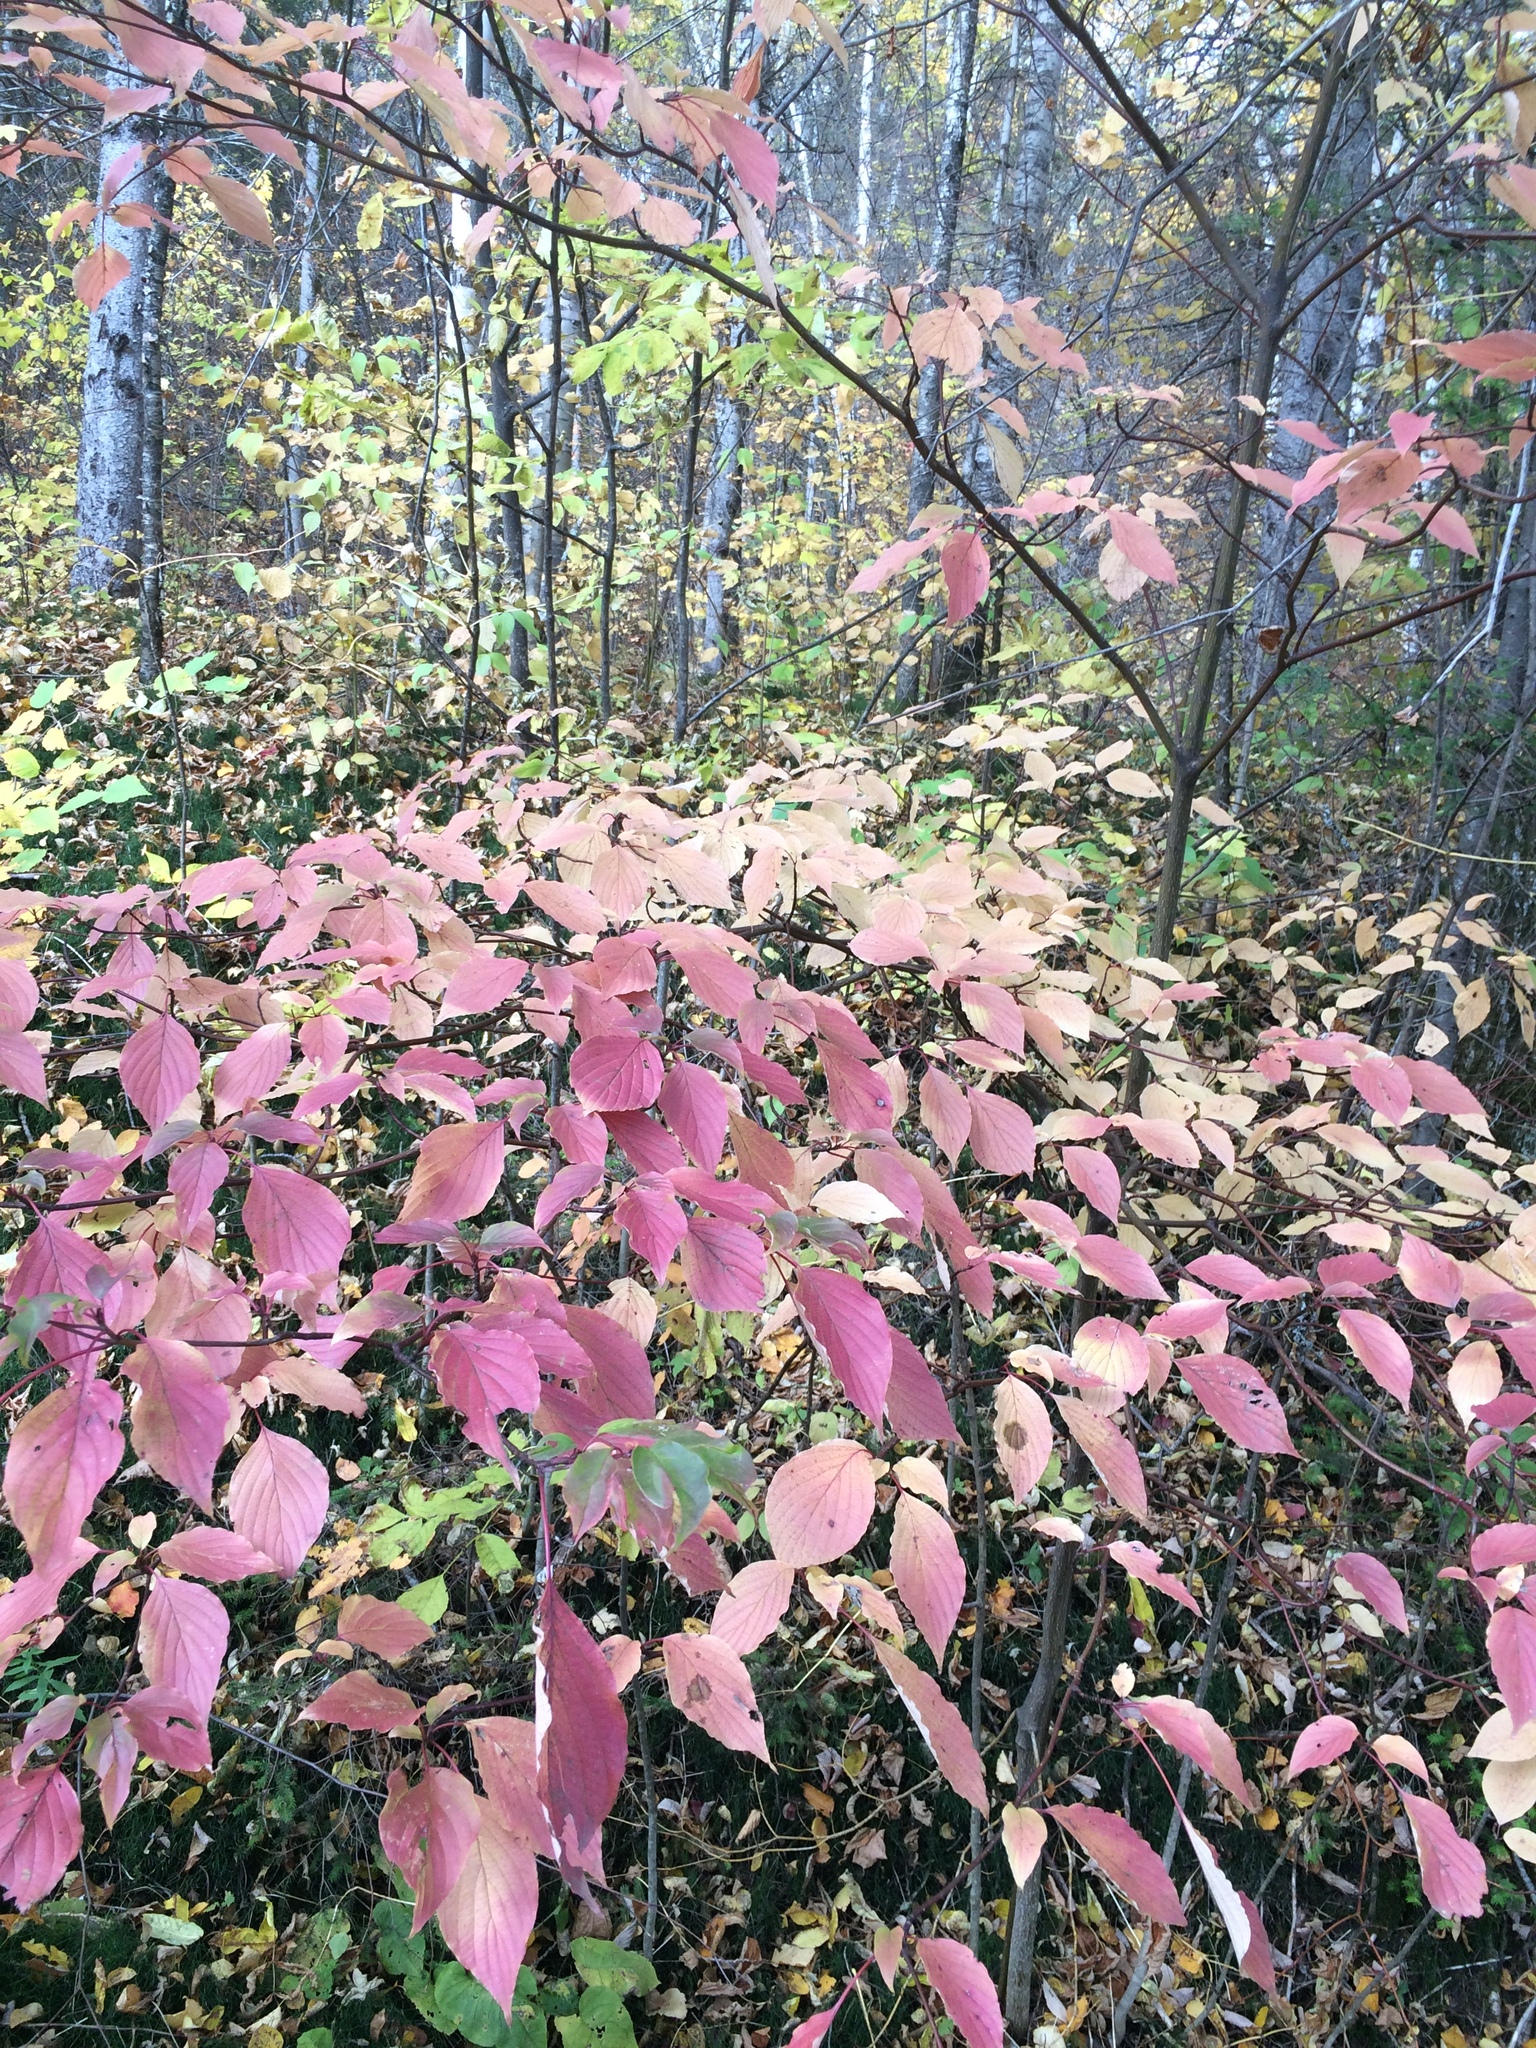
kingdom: Plantae
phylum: Tracheophyta
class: Magnoliopsida
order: Cornales
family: Cornaceae
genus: Cornus
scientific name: Cornus alternifolia
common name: Pagoda dogwood
